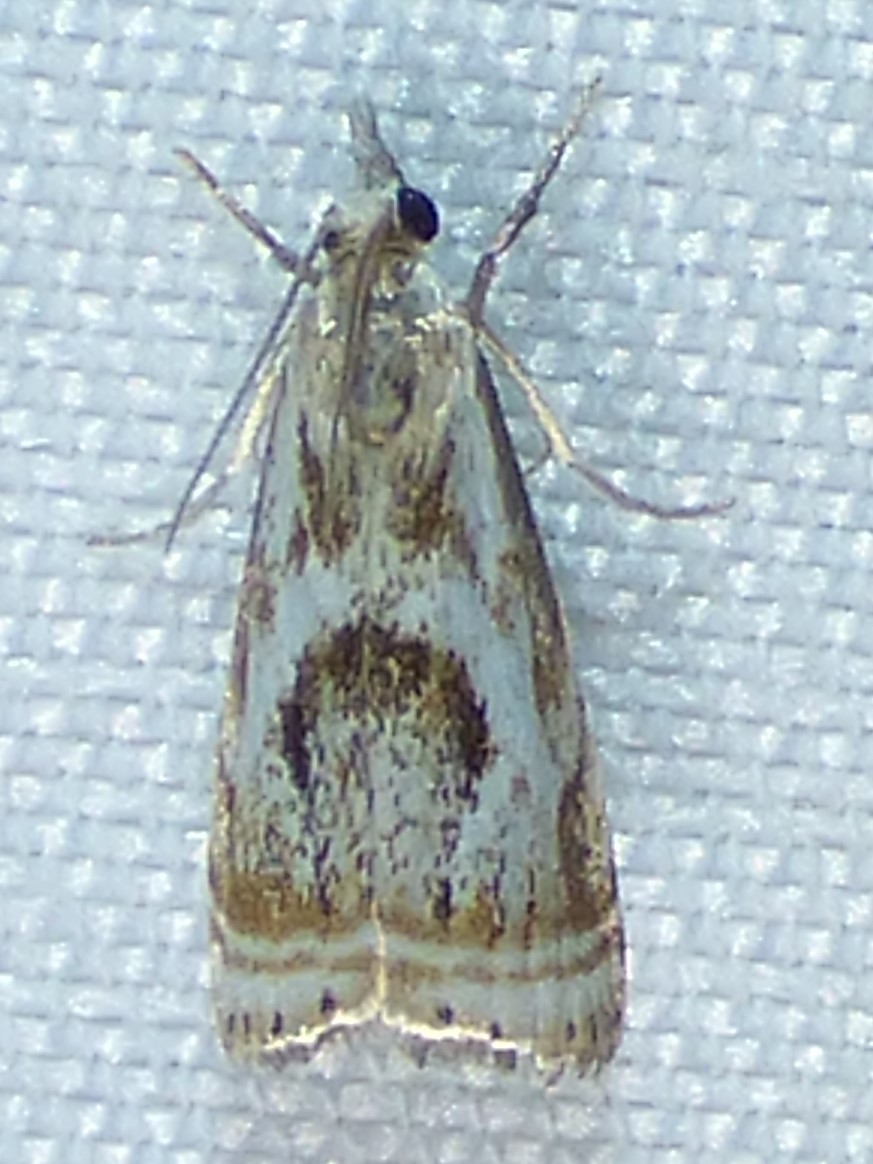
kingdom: Animalia
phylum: Arthropoda
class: Insecta
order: Lepidoptera
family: Crambidae
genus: Microcrambus
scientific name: Microcrambus elegans
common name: Elegant grass-veneer
